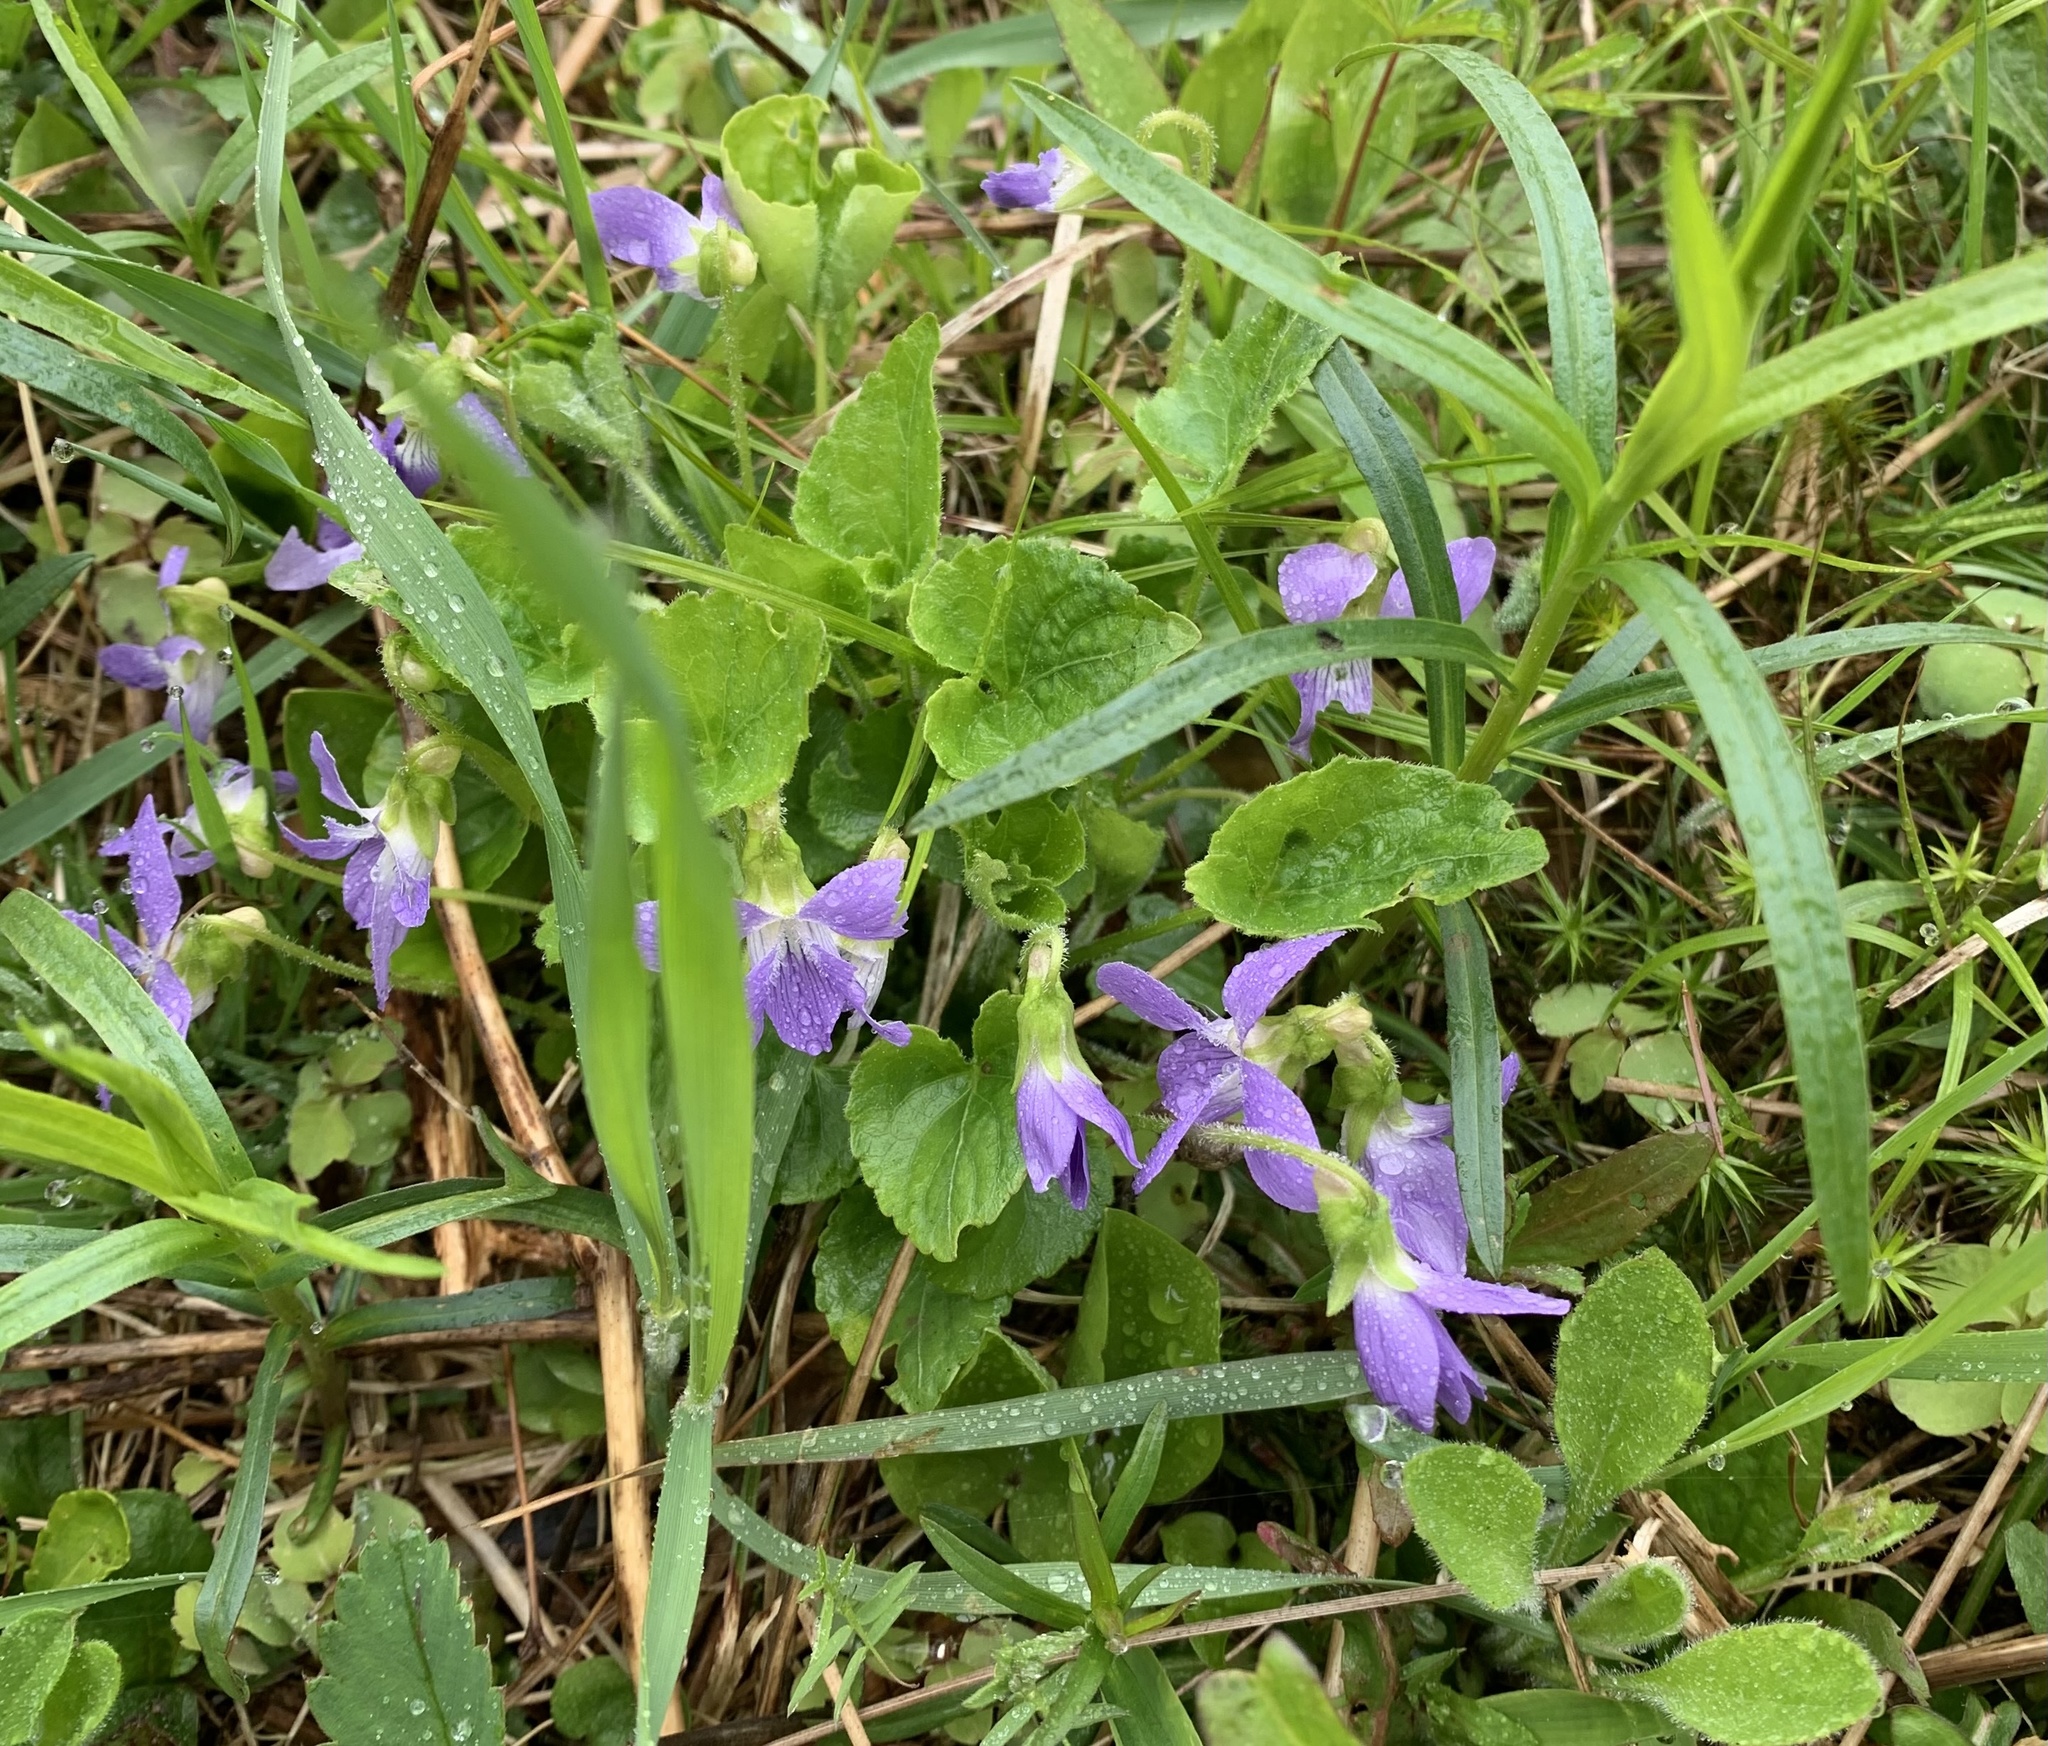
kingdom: Plantae
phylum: Tracheophyta
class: Magnoliopsida
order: Malpighiales
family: Violaceae
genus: Viola
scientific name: Viola sororia
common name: Dooryard violet
